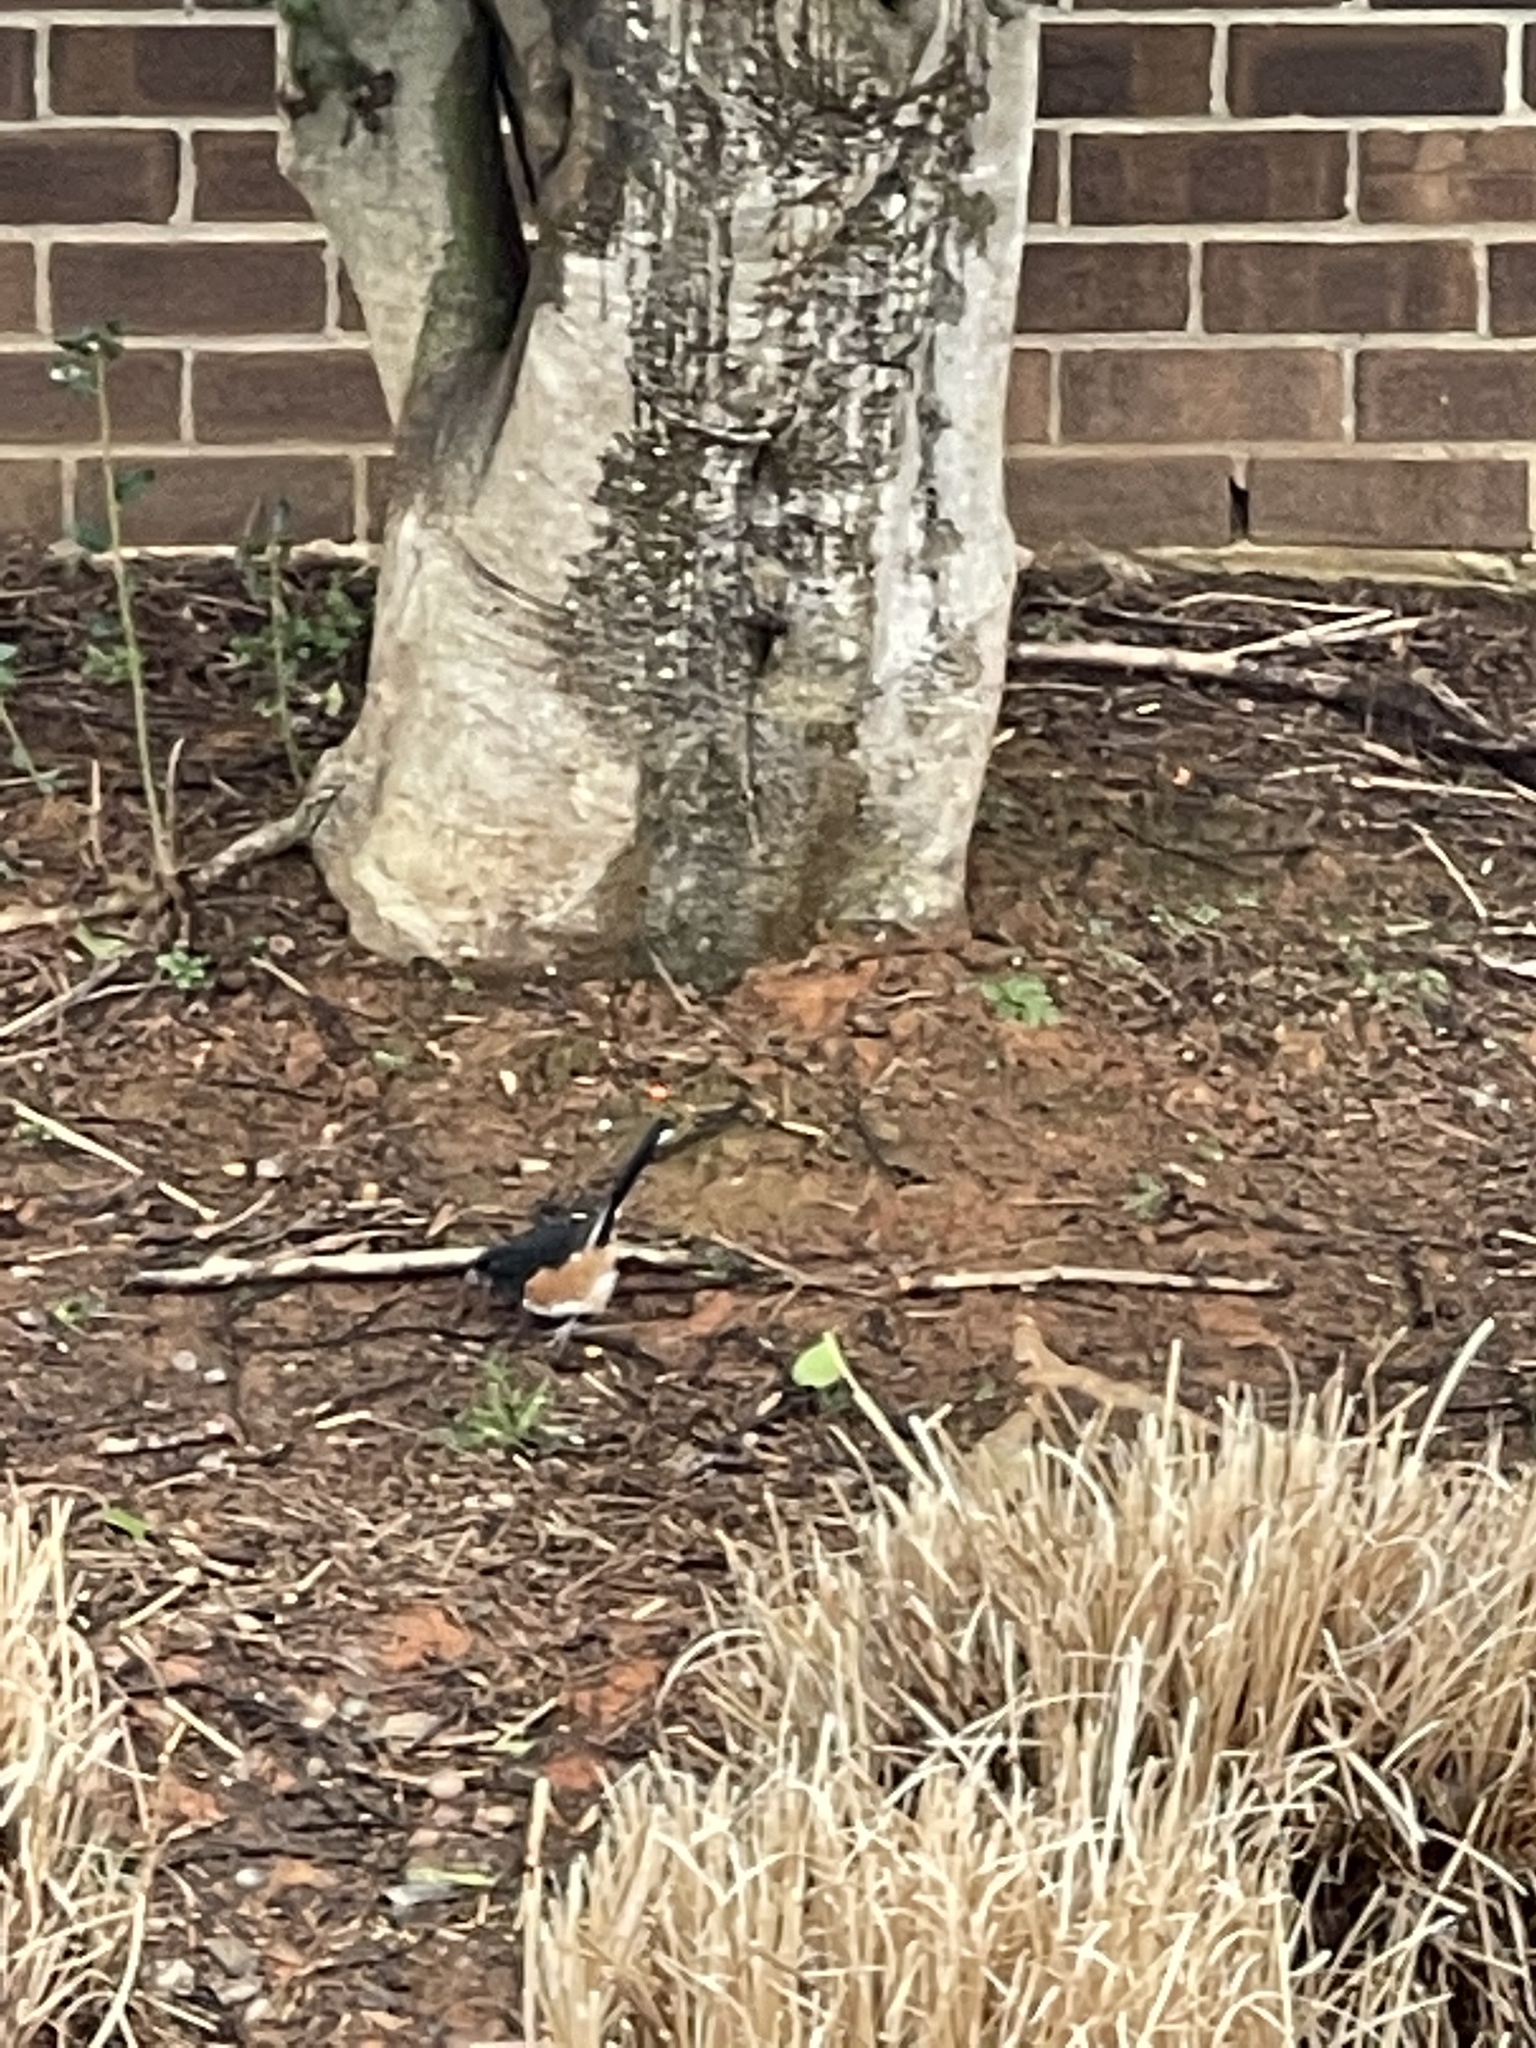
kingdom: Animalia
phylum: Chordata
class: Aves
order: Passeriformes
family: Passerellidae
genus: Pipilo
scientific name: Pipilo erythrophthalmus
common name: Eastern towhee
